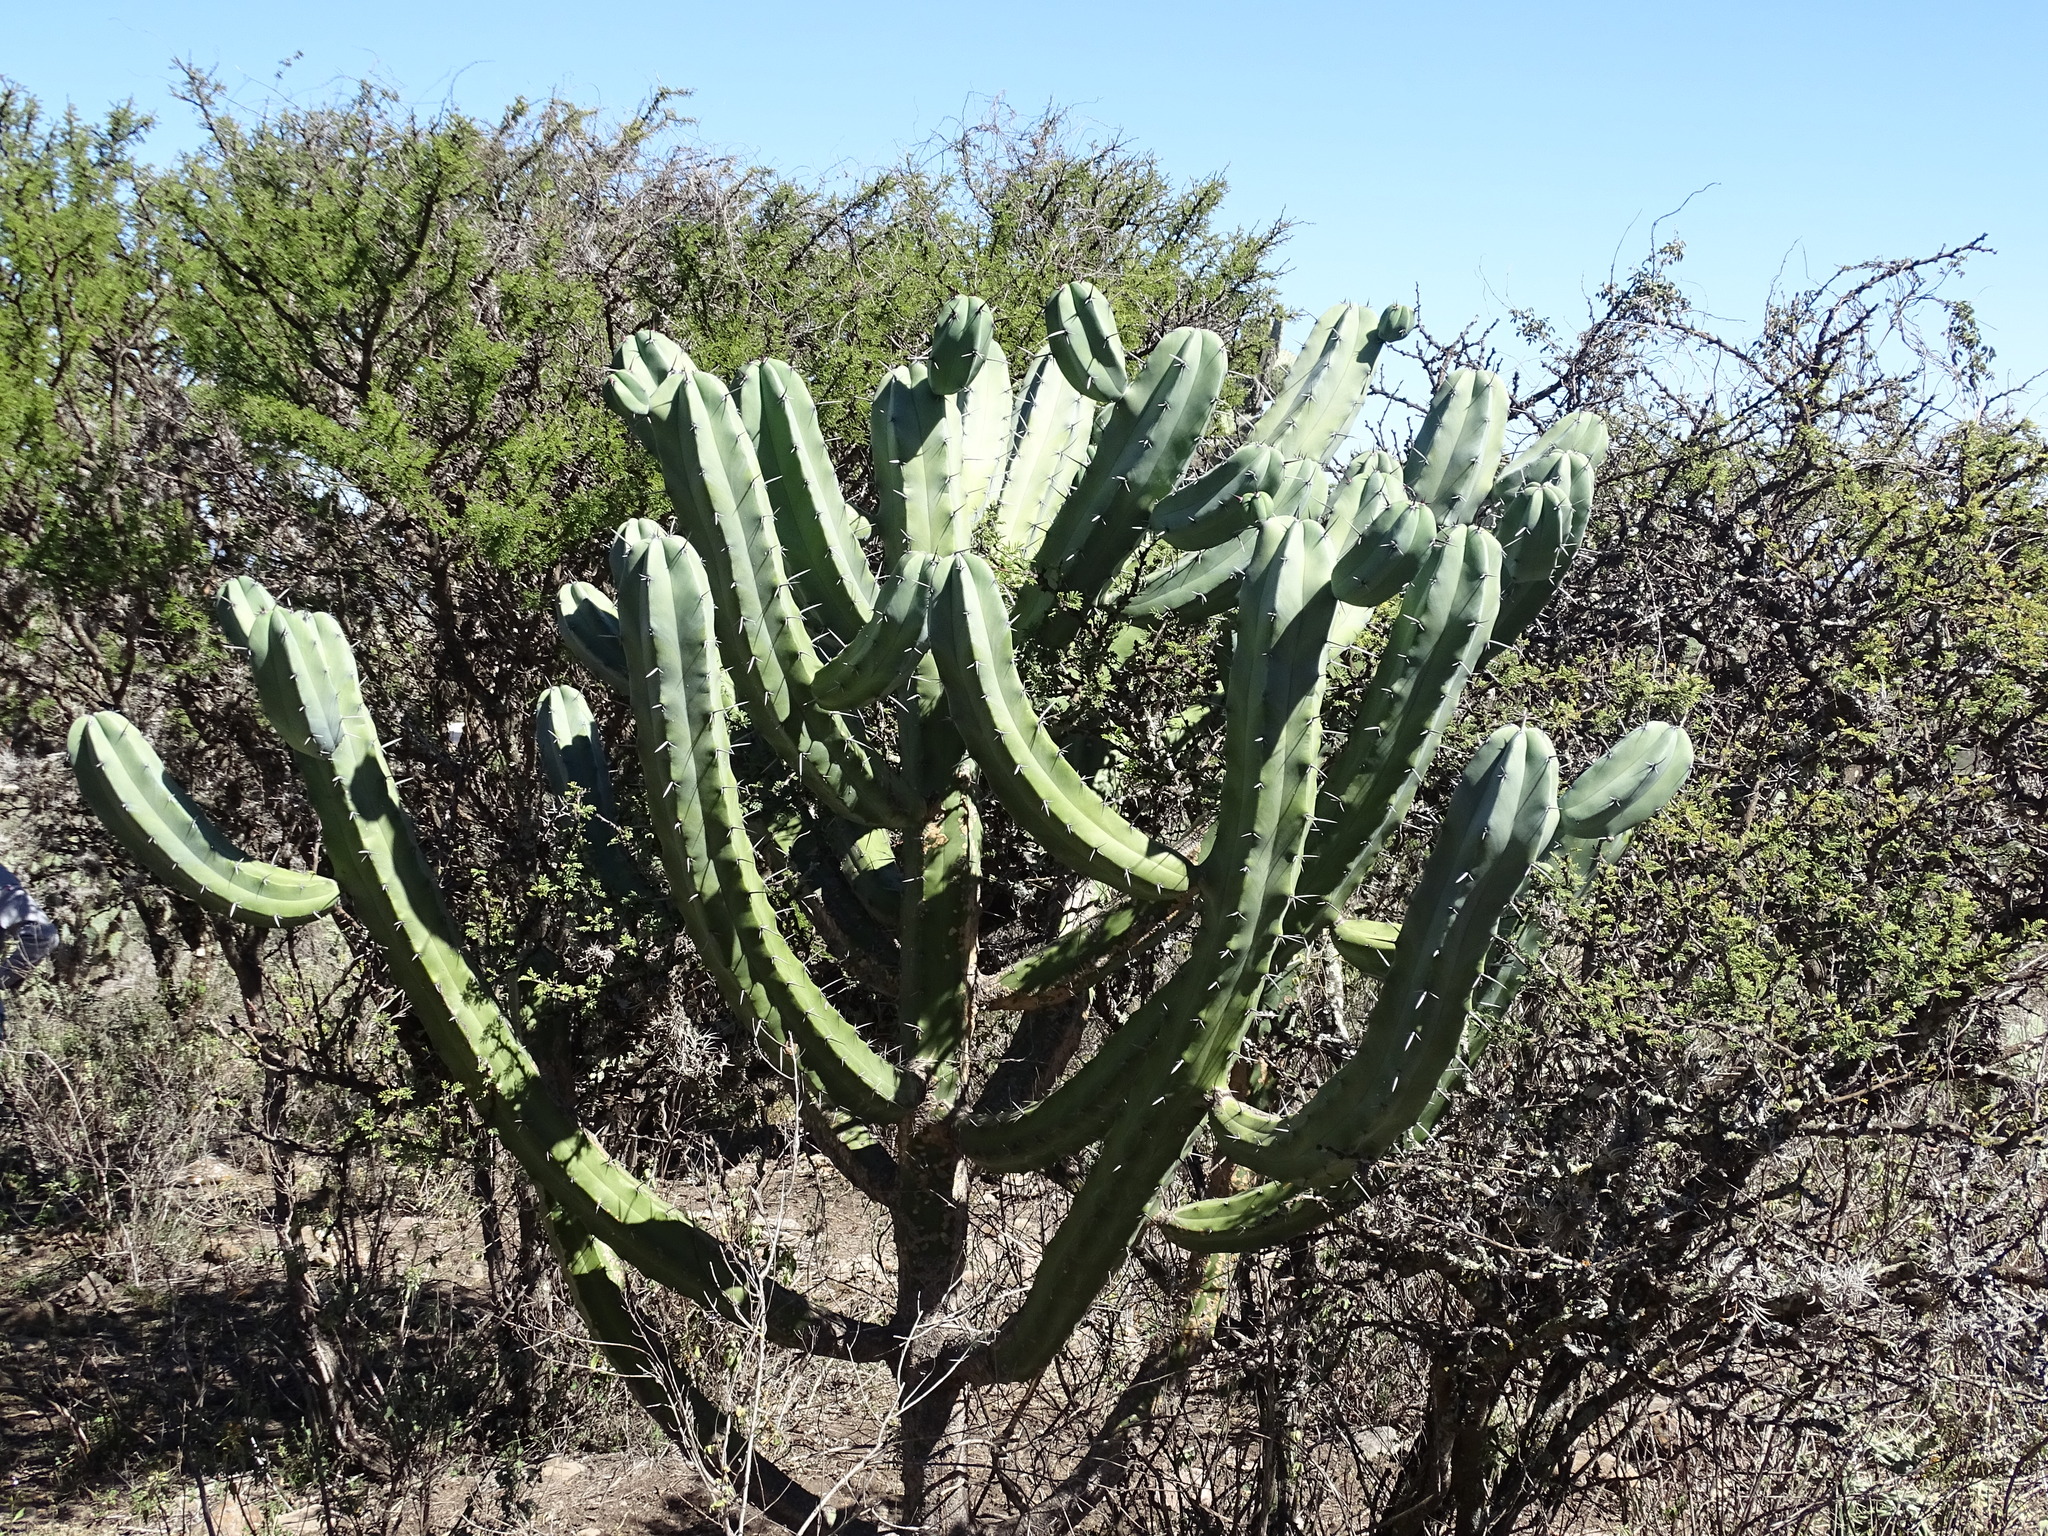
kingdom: Plantae
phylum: Tracheophyta
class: Magnoliopsida
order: Caryophyllales
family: Cactaceae
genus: Myrtillocactus
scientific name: Myrtillocactus geometrizans
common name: Bilberry cactus
